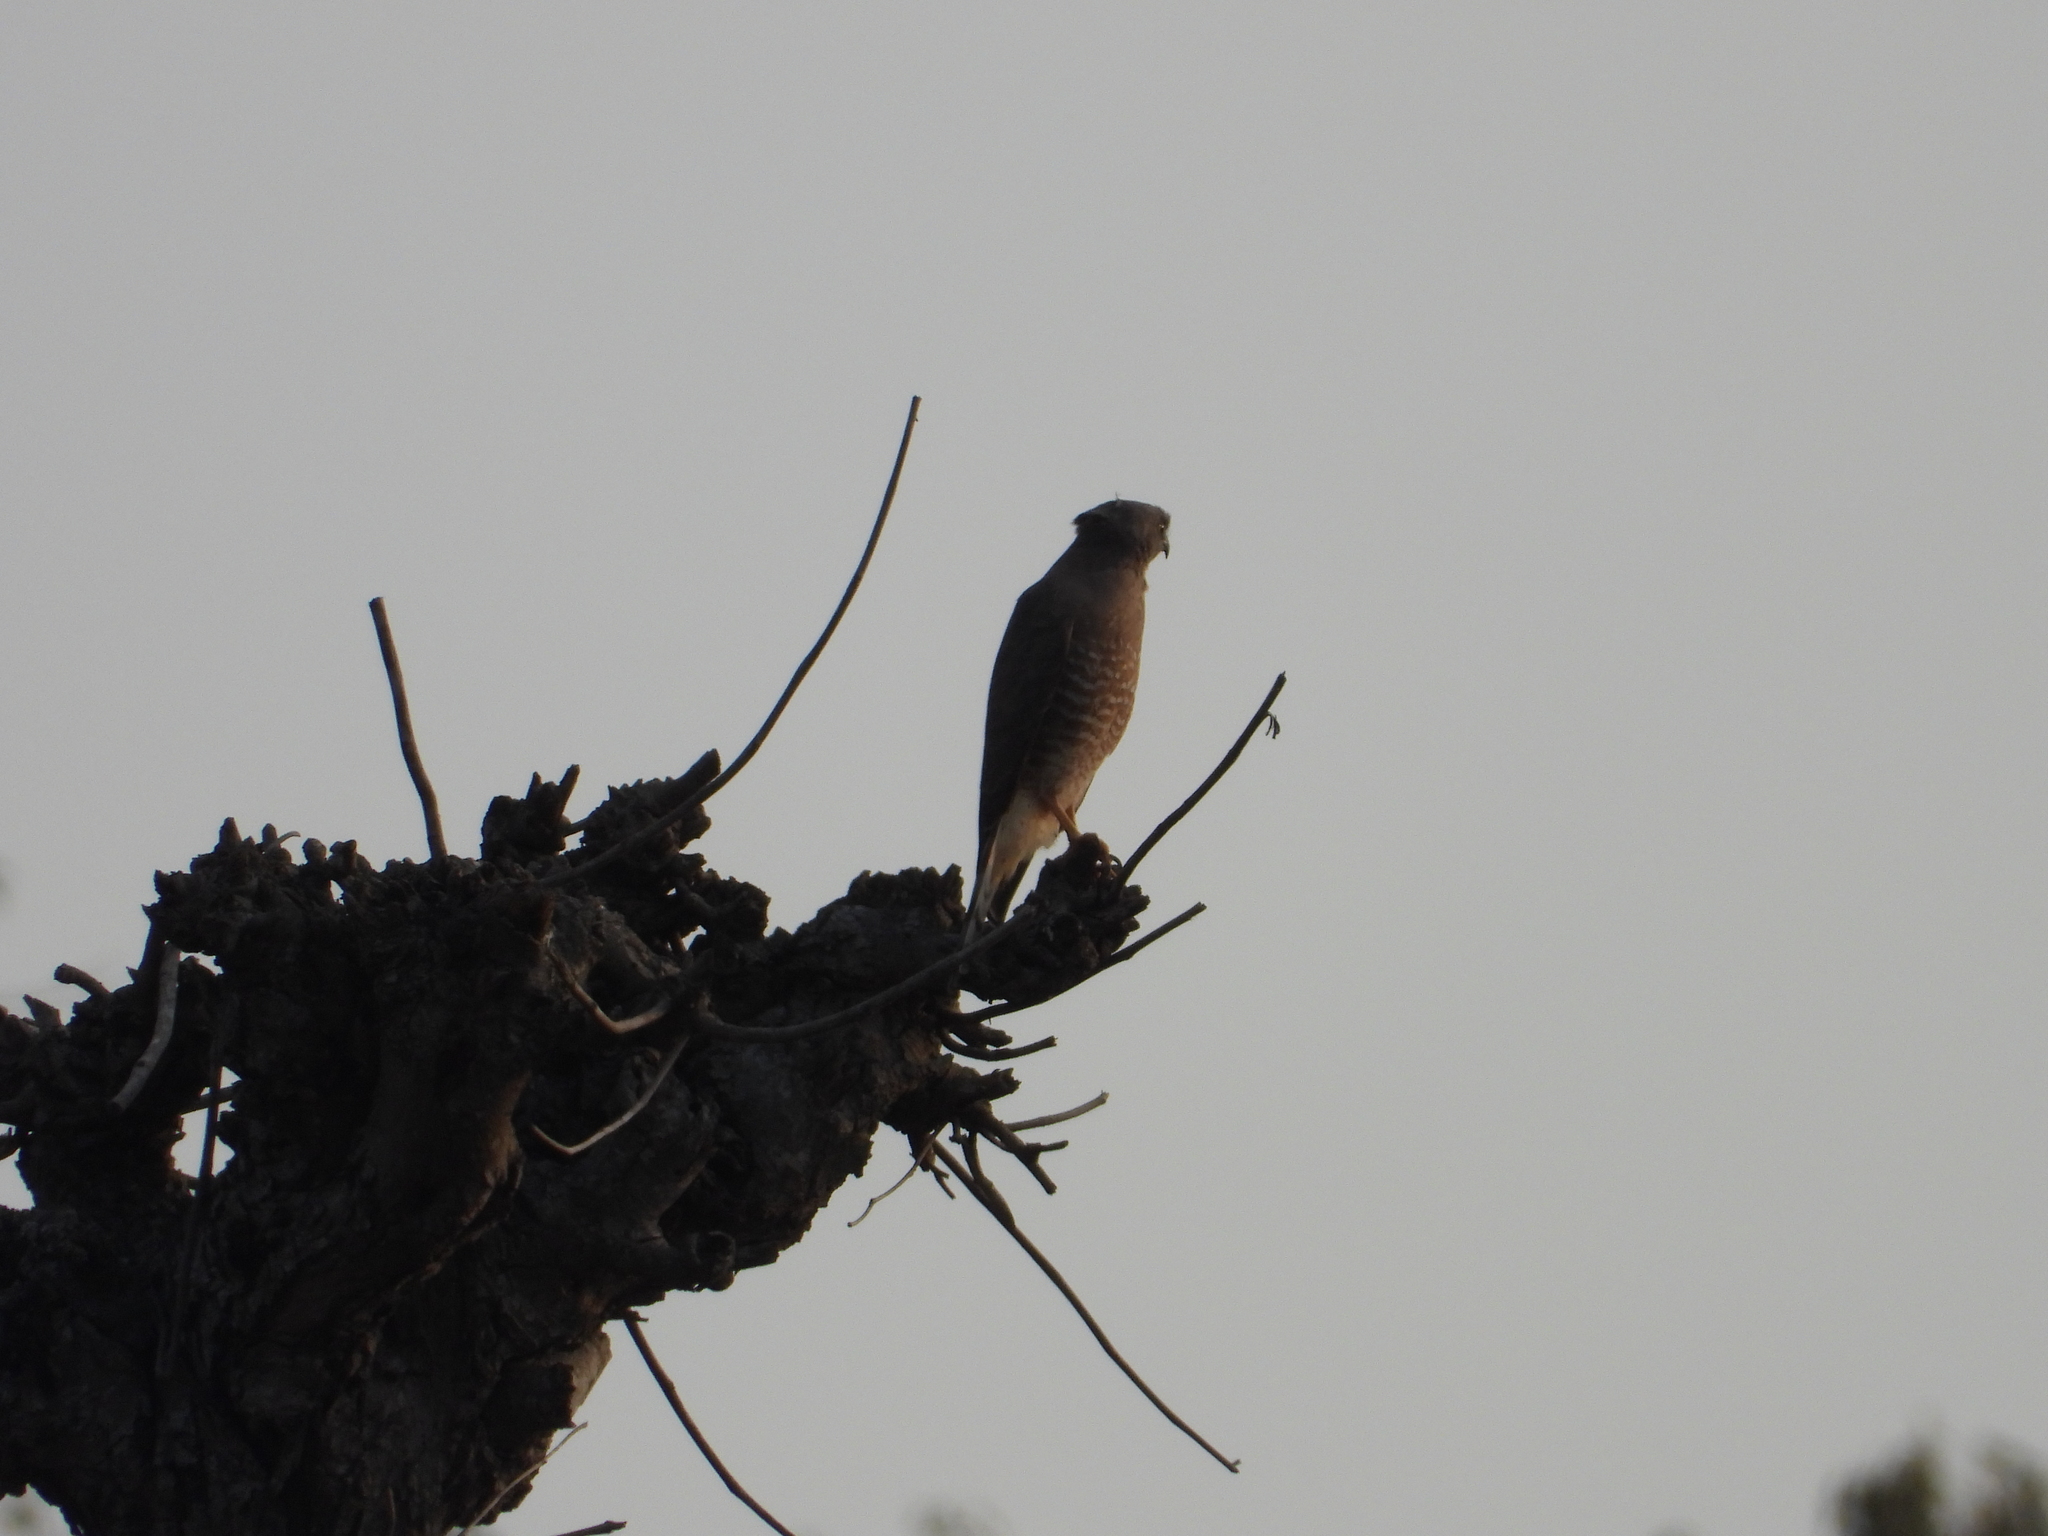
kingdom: Animalia
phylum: Chordata
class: Aves
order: Accipitriformes
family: Accipitridae
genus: Rupornis
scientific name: Rupornis magnirostris
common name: Roadside hawk
